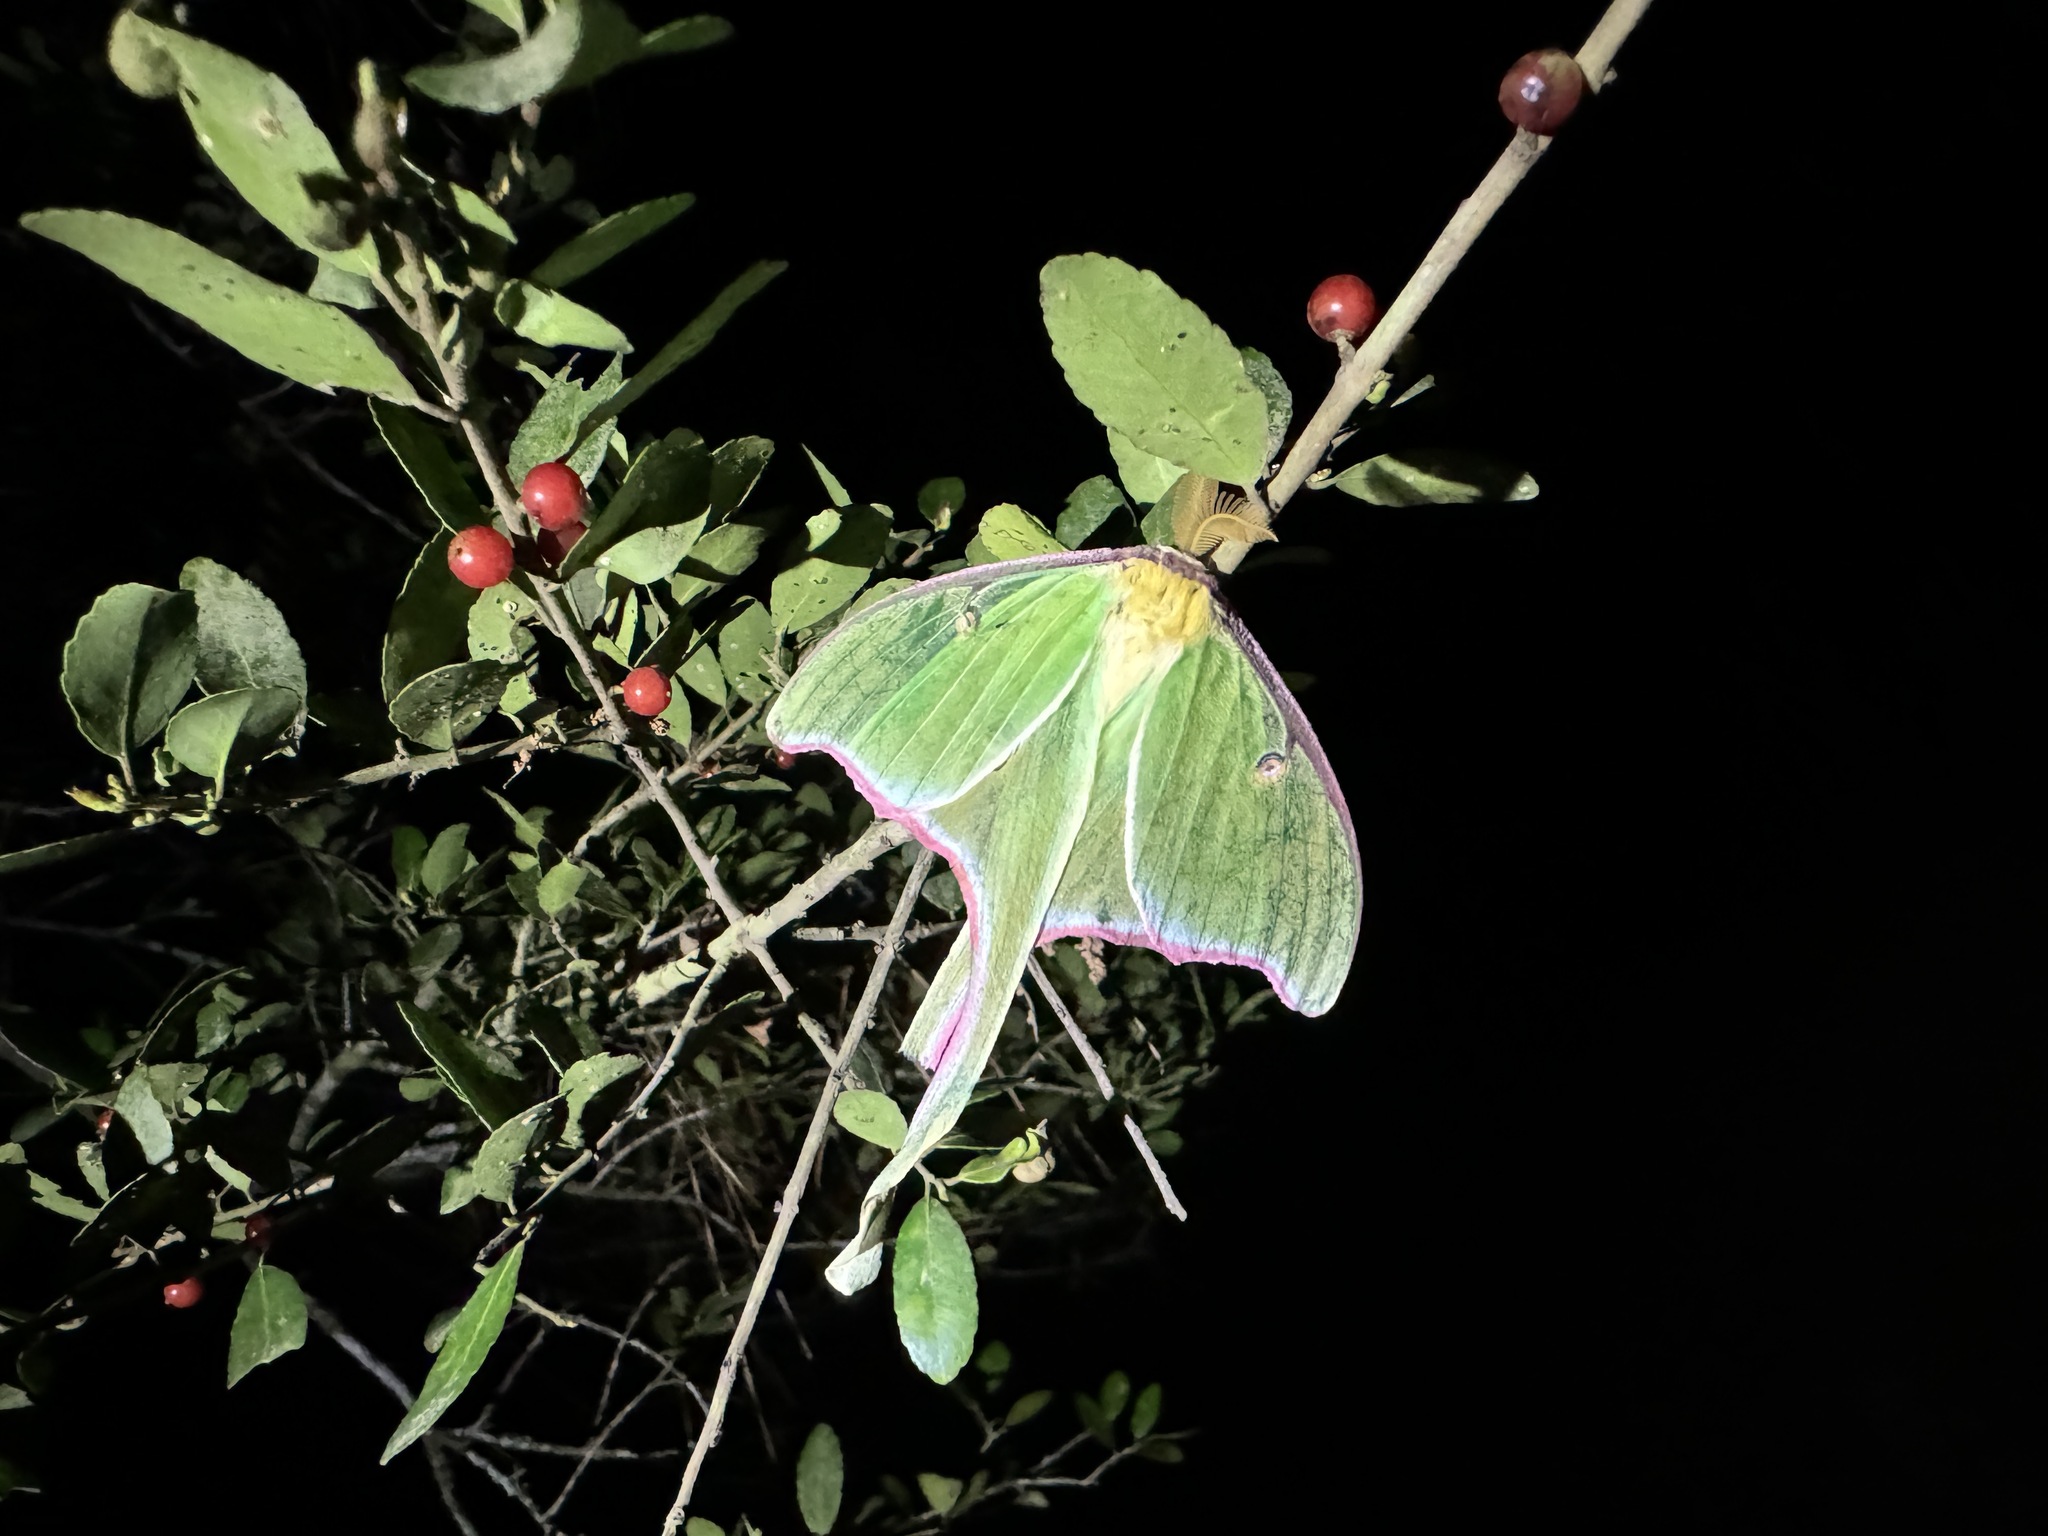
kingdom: Animalia
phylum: Arthropoda
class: Insecta
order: Lepidoptera
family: Saturniidae
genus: Actias
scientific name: Actias luna
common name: Luna moth
